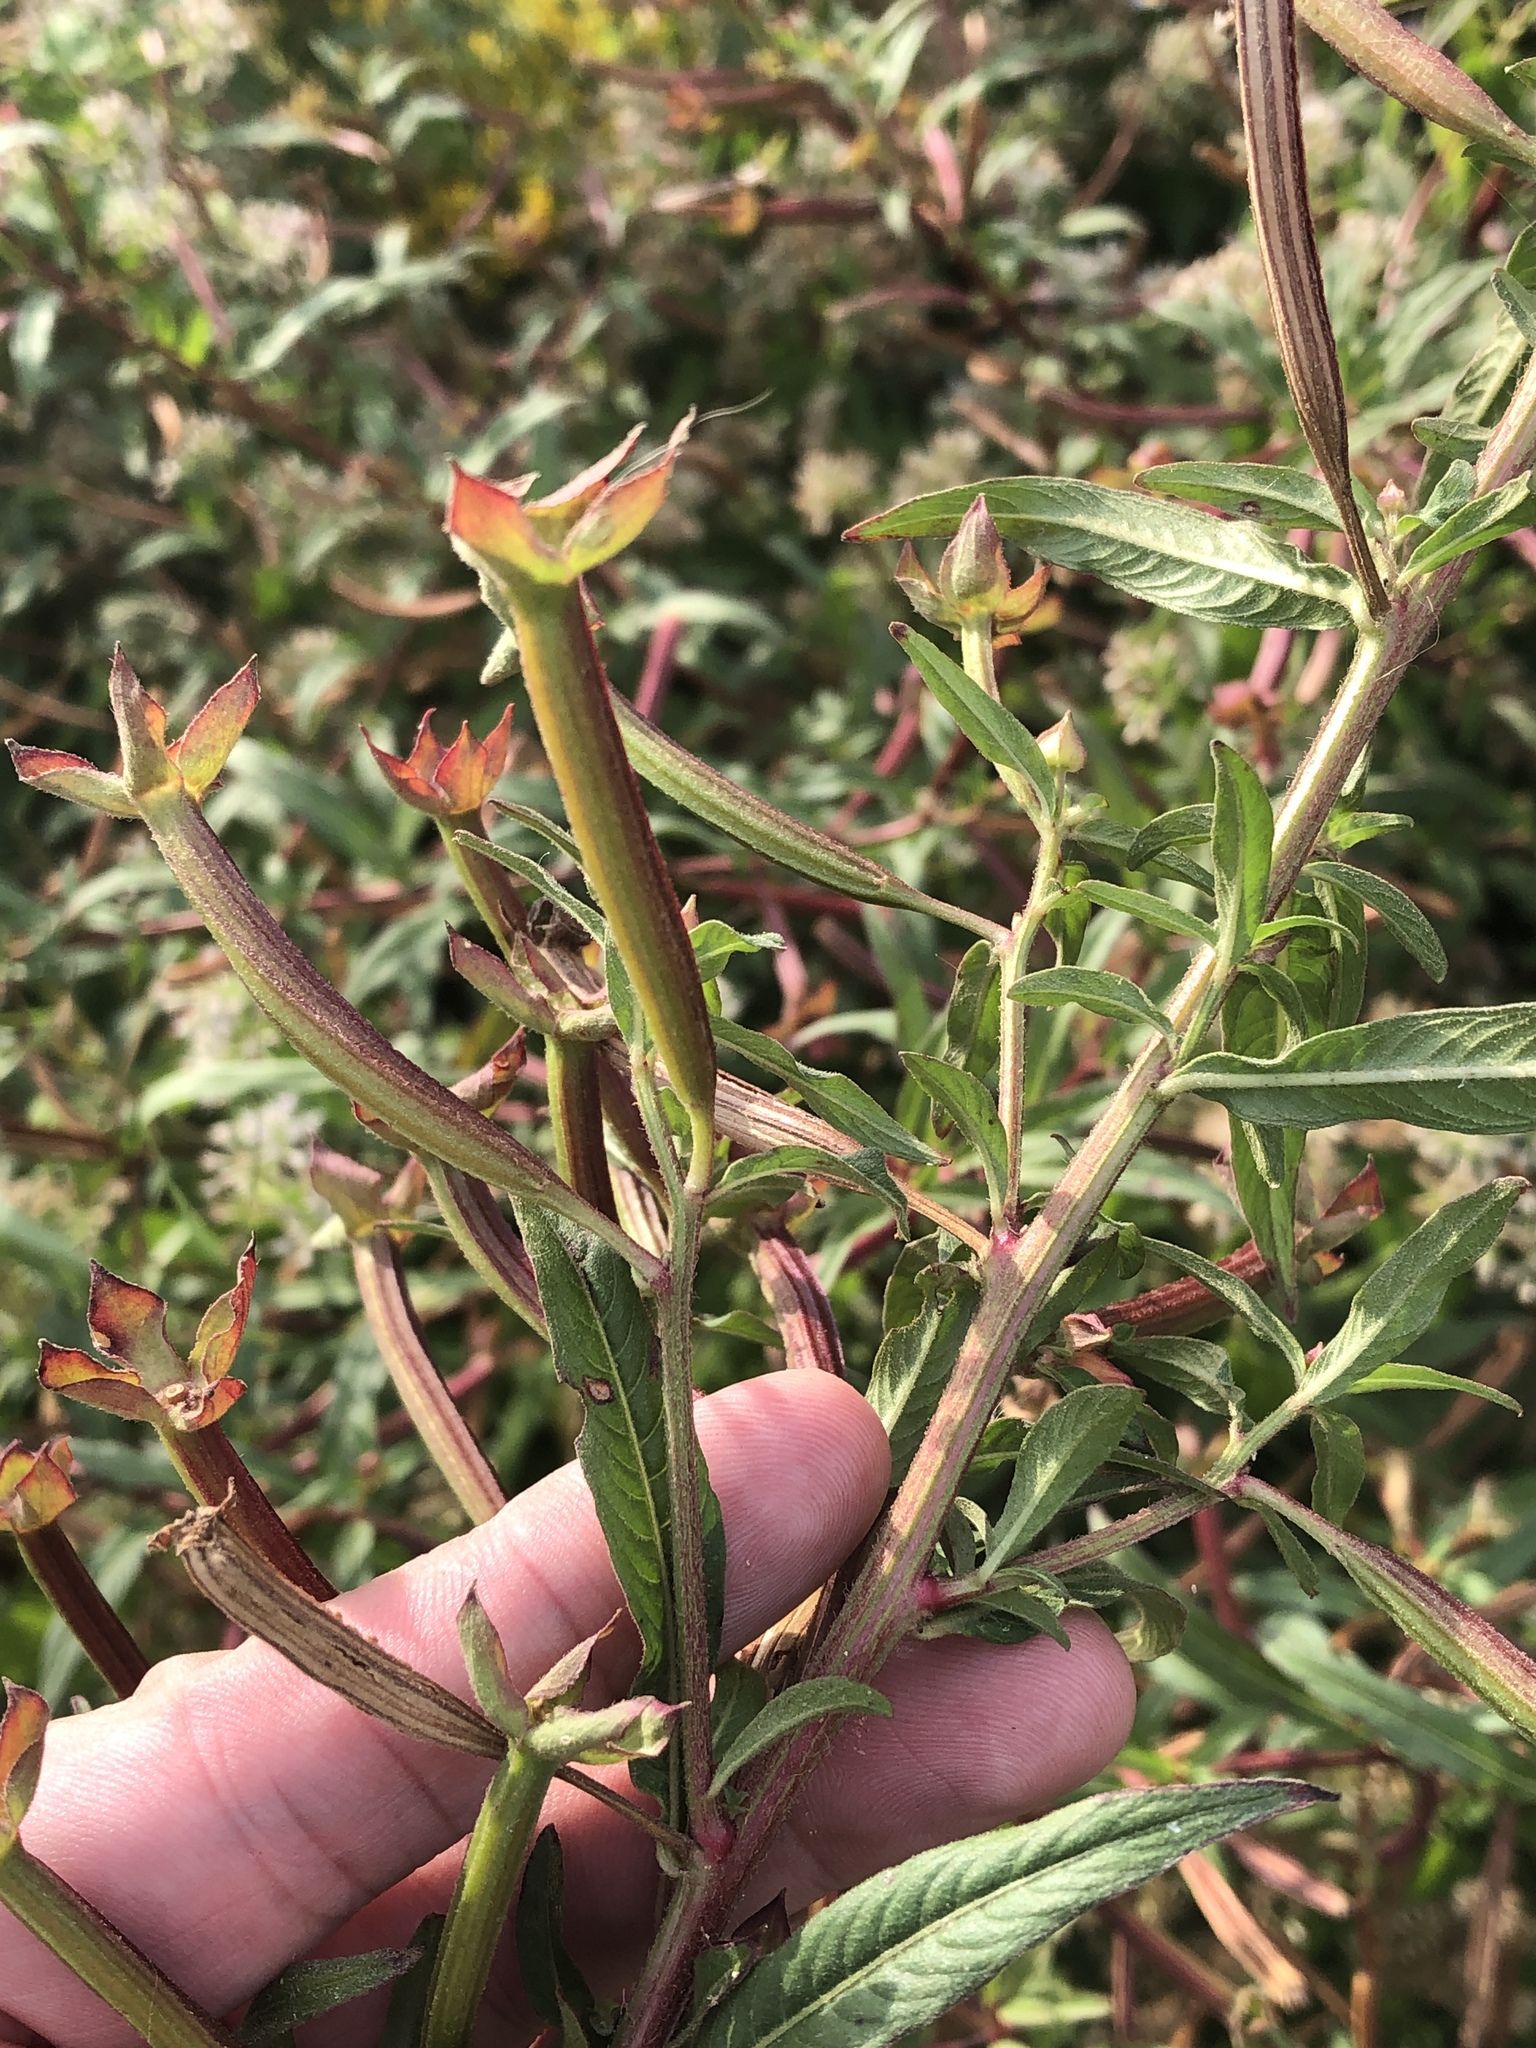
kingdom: Plantae
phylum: Tracheophyta
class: Magnoliopsida
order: Myrtales
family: Onagraceae
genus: Ludwigia
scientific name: Ludwigia octovalvis
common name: Water-primrose
